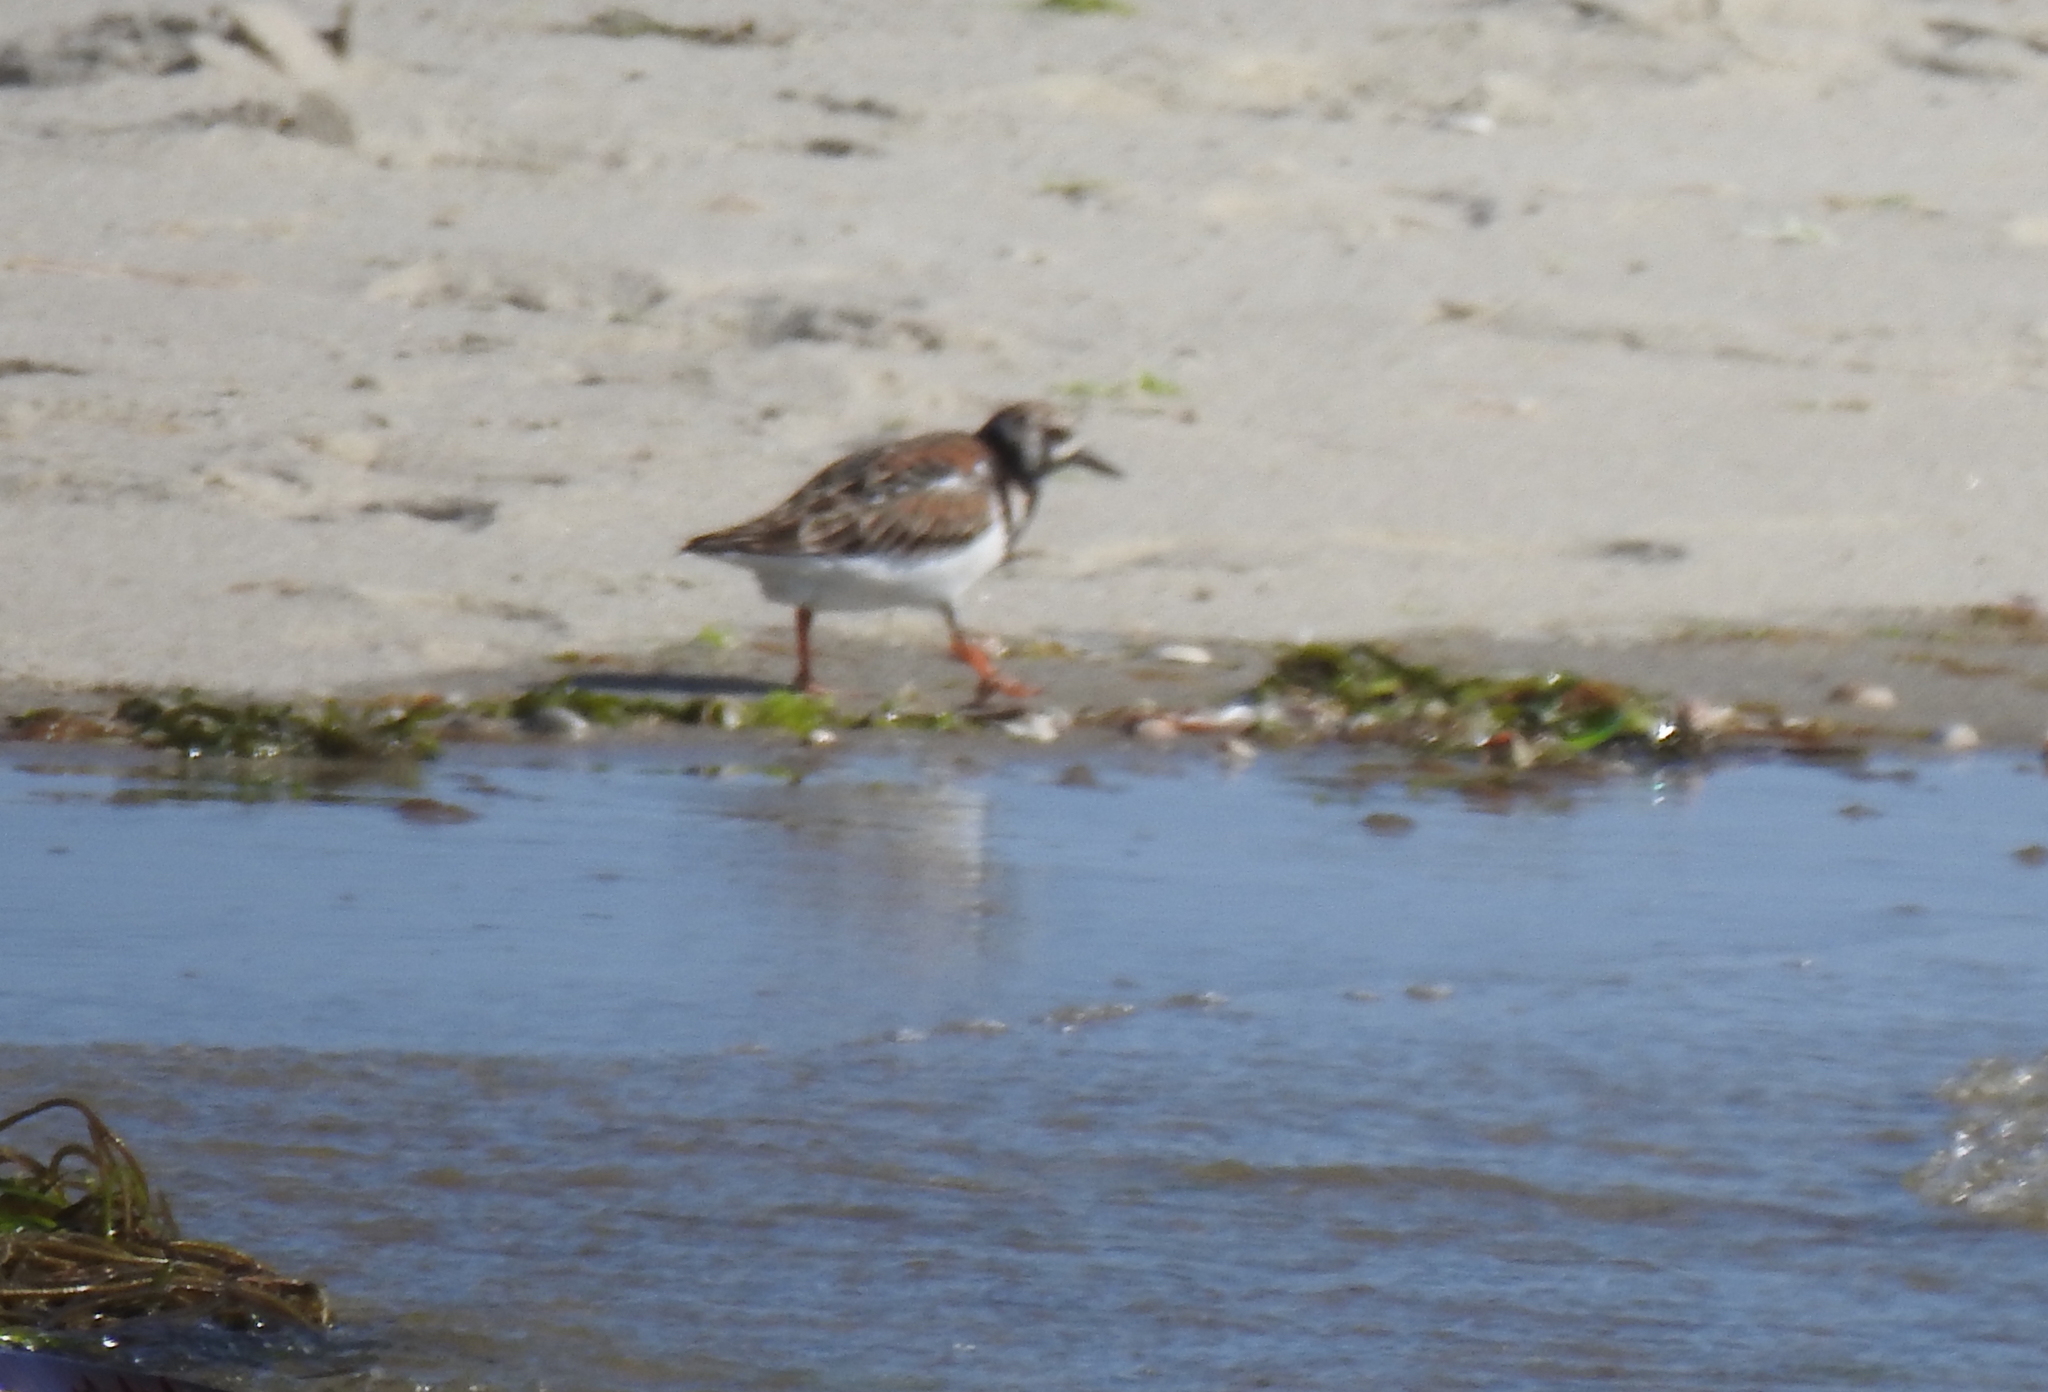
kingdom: Animalia
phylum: Chordata
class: Aves
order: Charadriiformes
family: Scolopacidae
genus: Arenaria
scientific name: Arenaria interpres
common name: Ruddy turnstone
